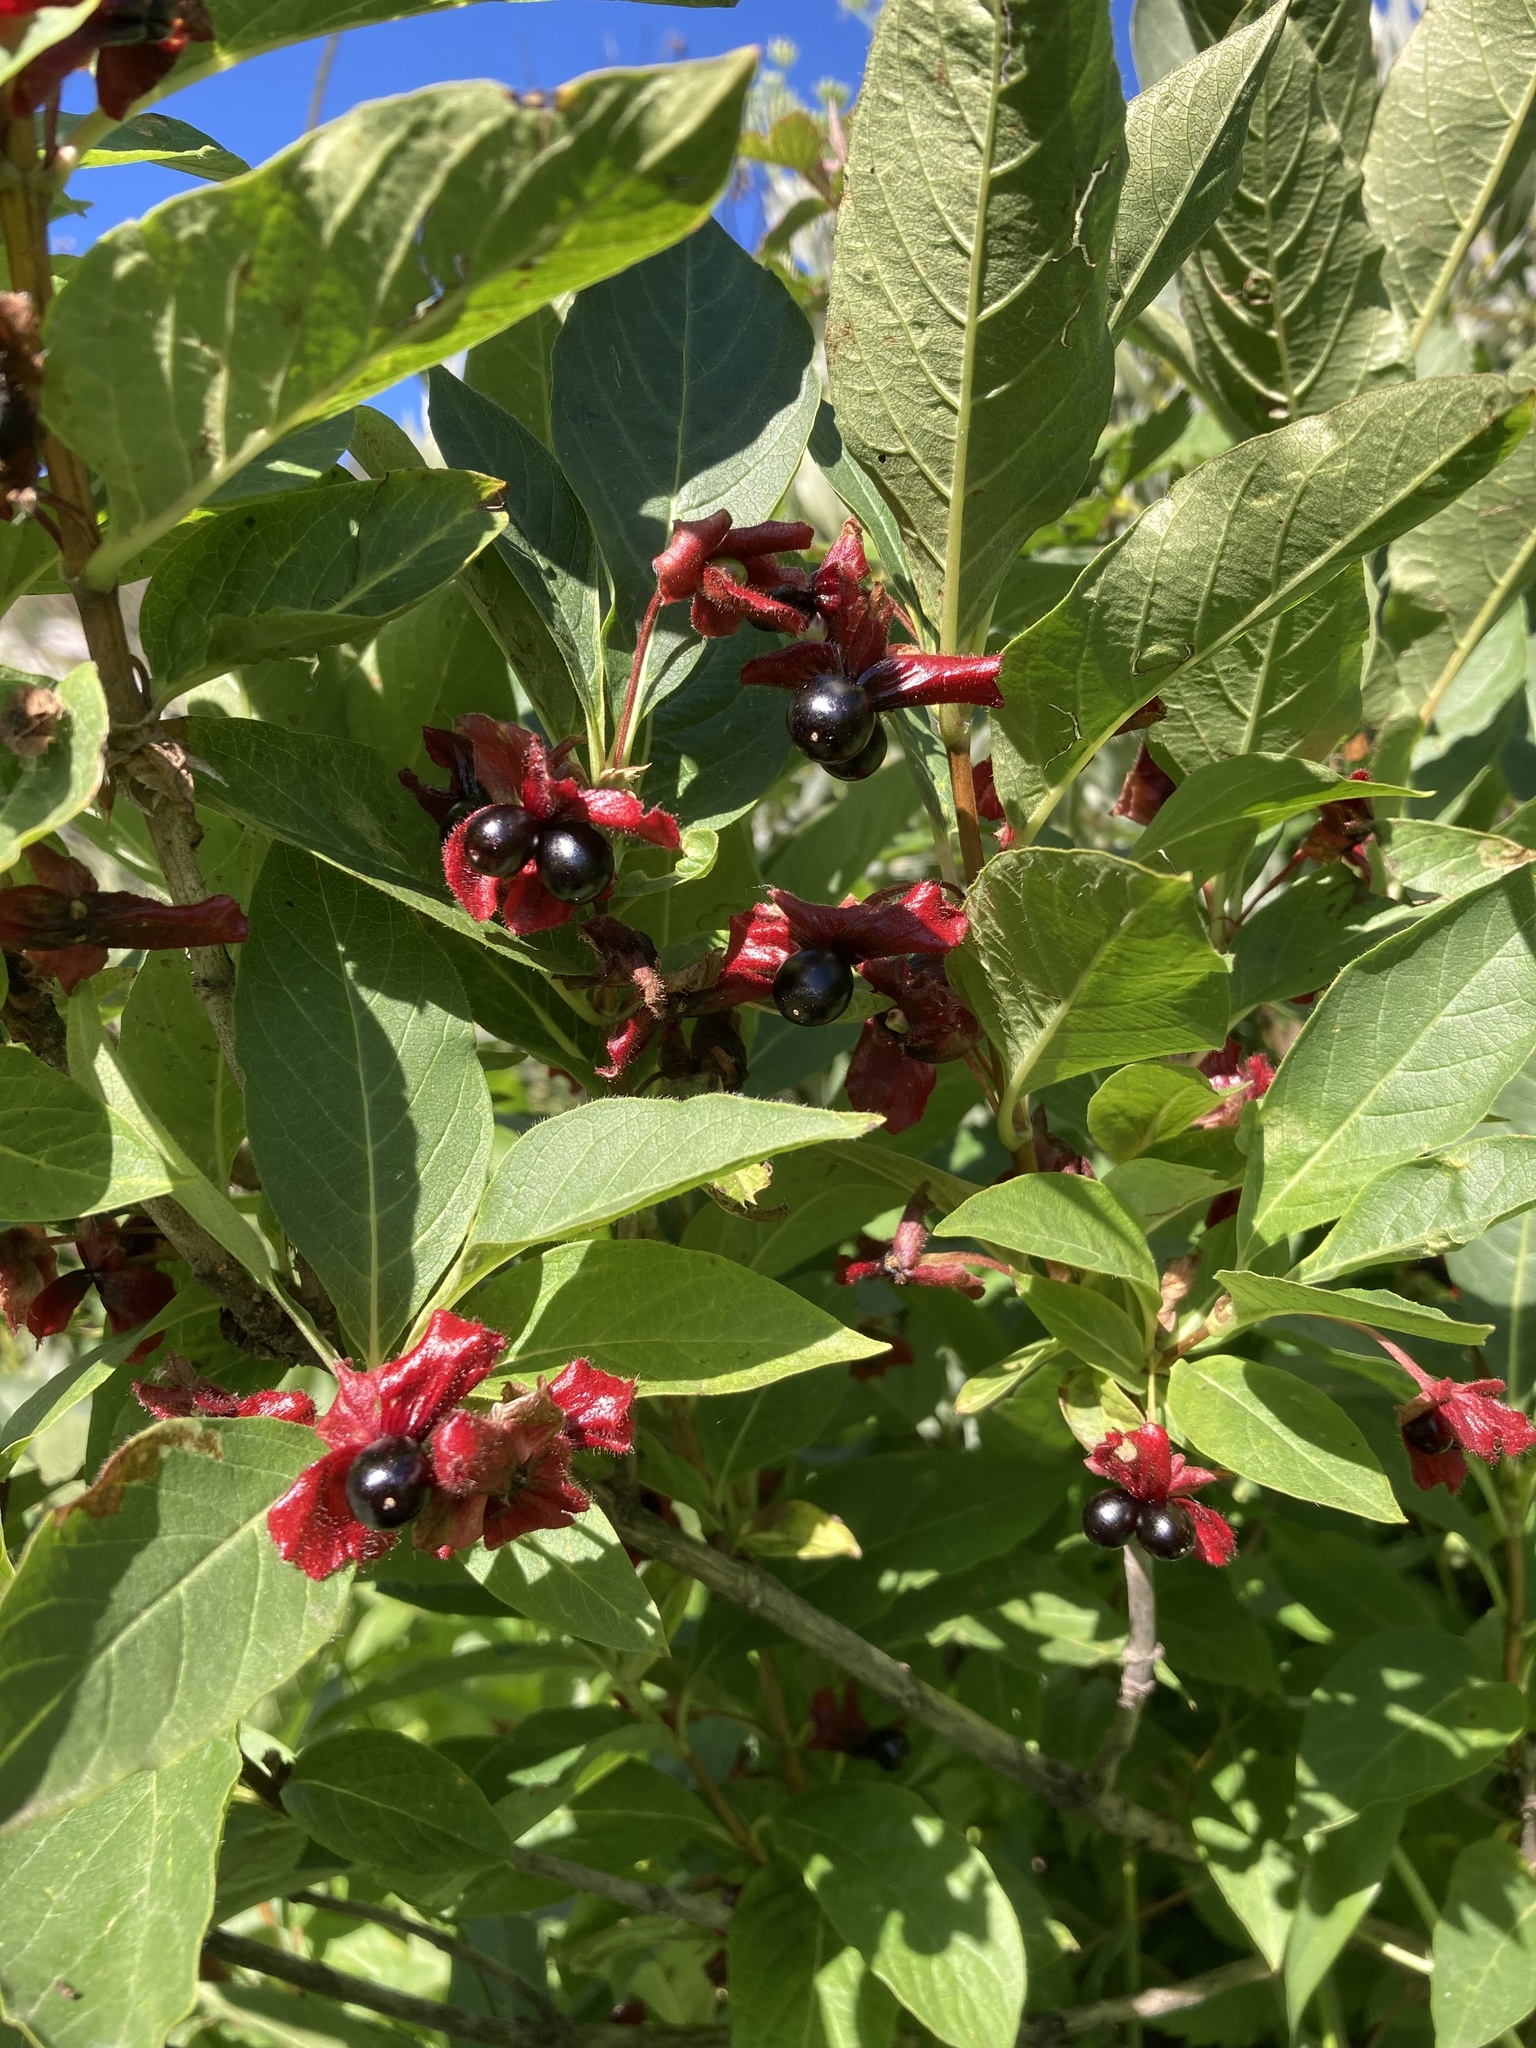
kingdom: Plantae
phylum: Tracheophyta
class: Magnoliopsida
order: Dipsacales
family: Caprifoliaceae
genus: Lonicera
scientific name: Lonicera involucrata
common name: Californian honeysuckle
